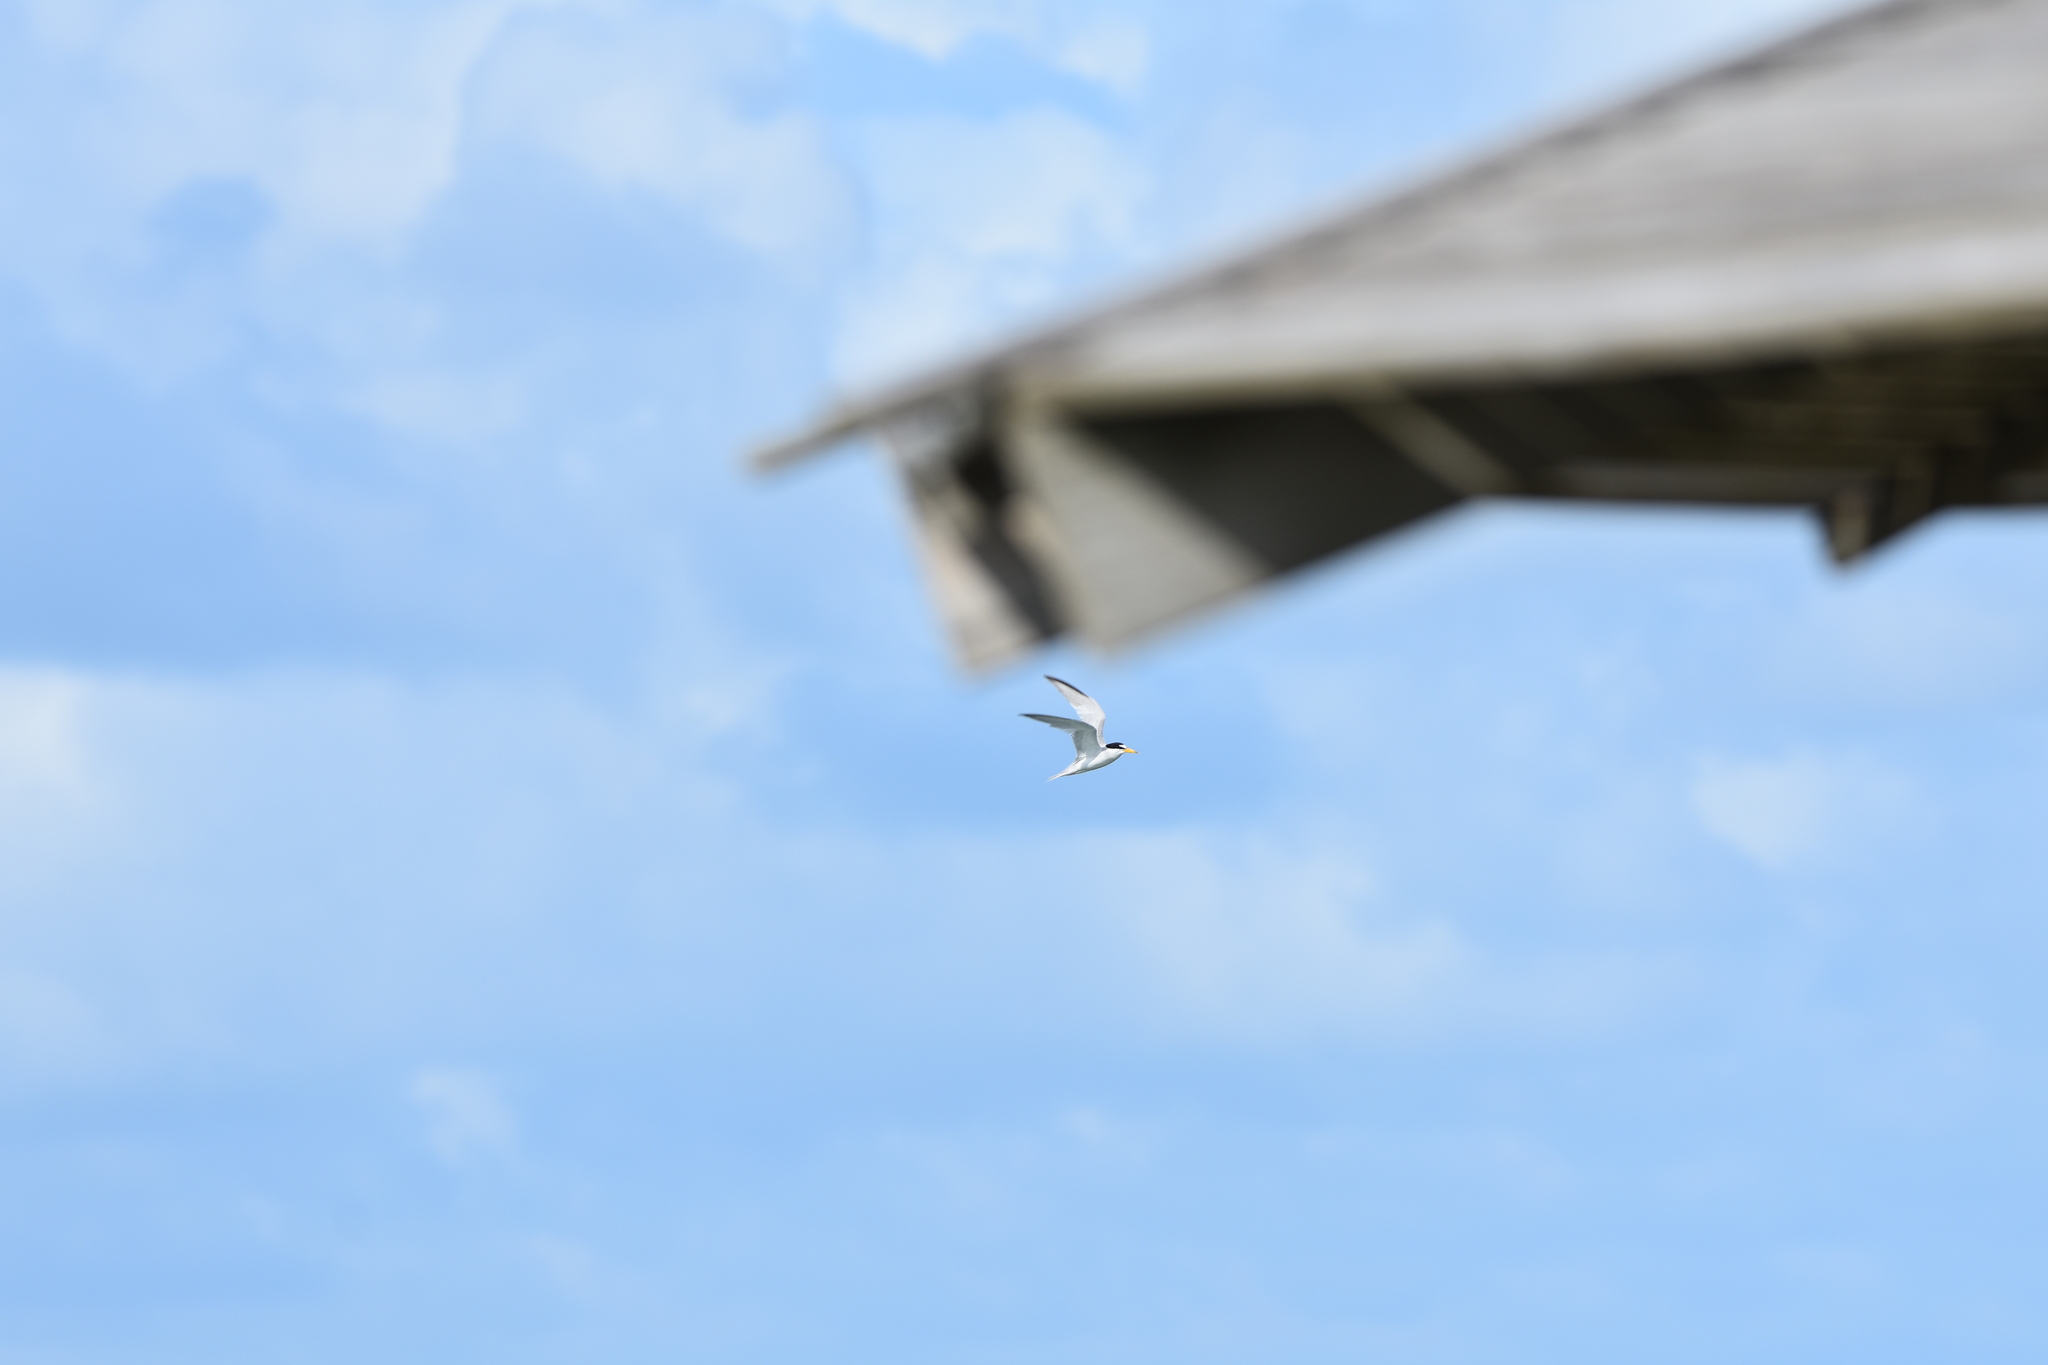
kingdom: Animalia
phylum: Chordata
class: Aves
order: Charadriiformes
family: Laridae
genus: Sternula
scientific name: Sternula antillarum
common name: Least tern
